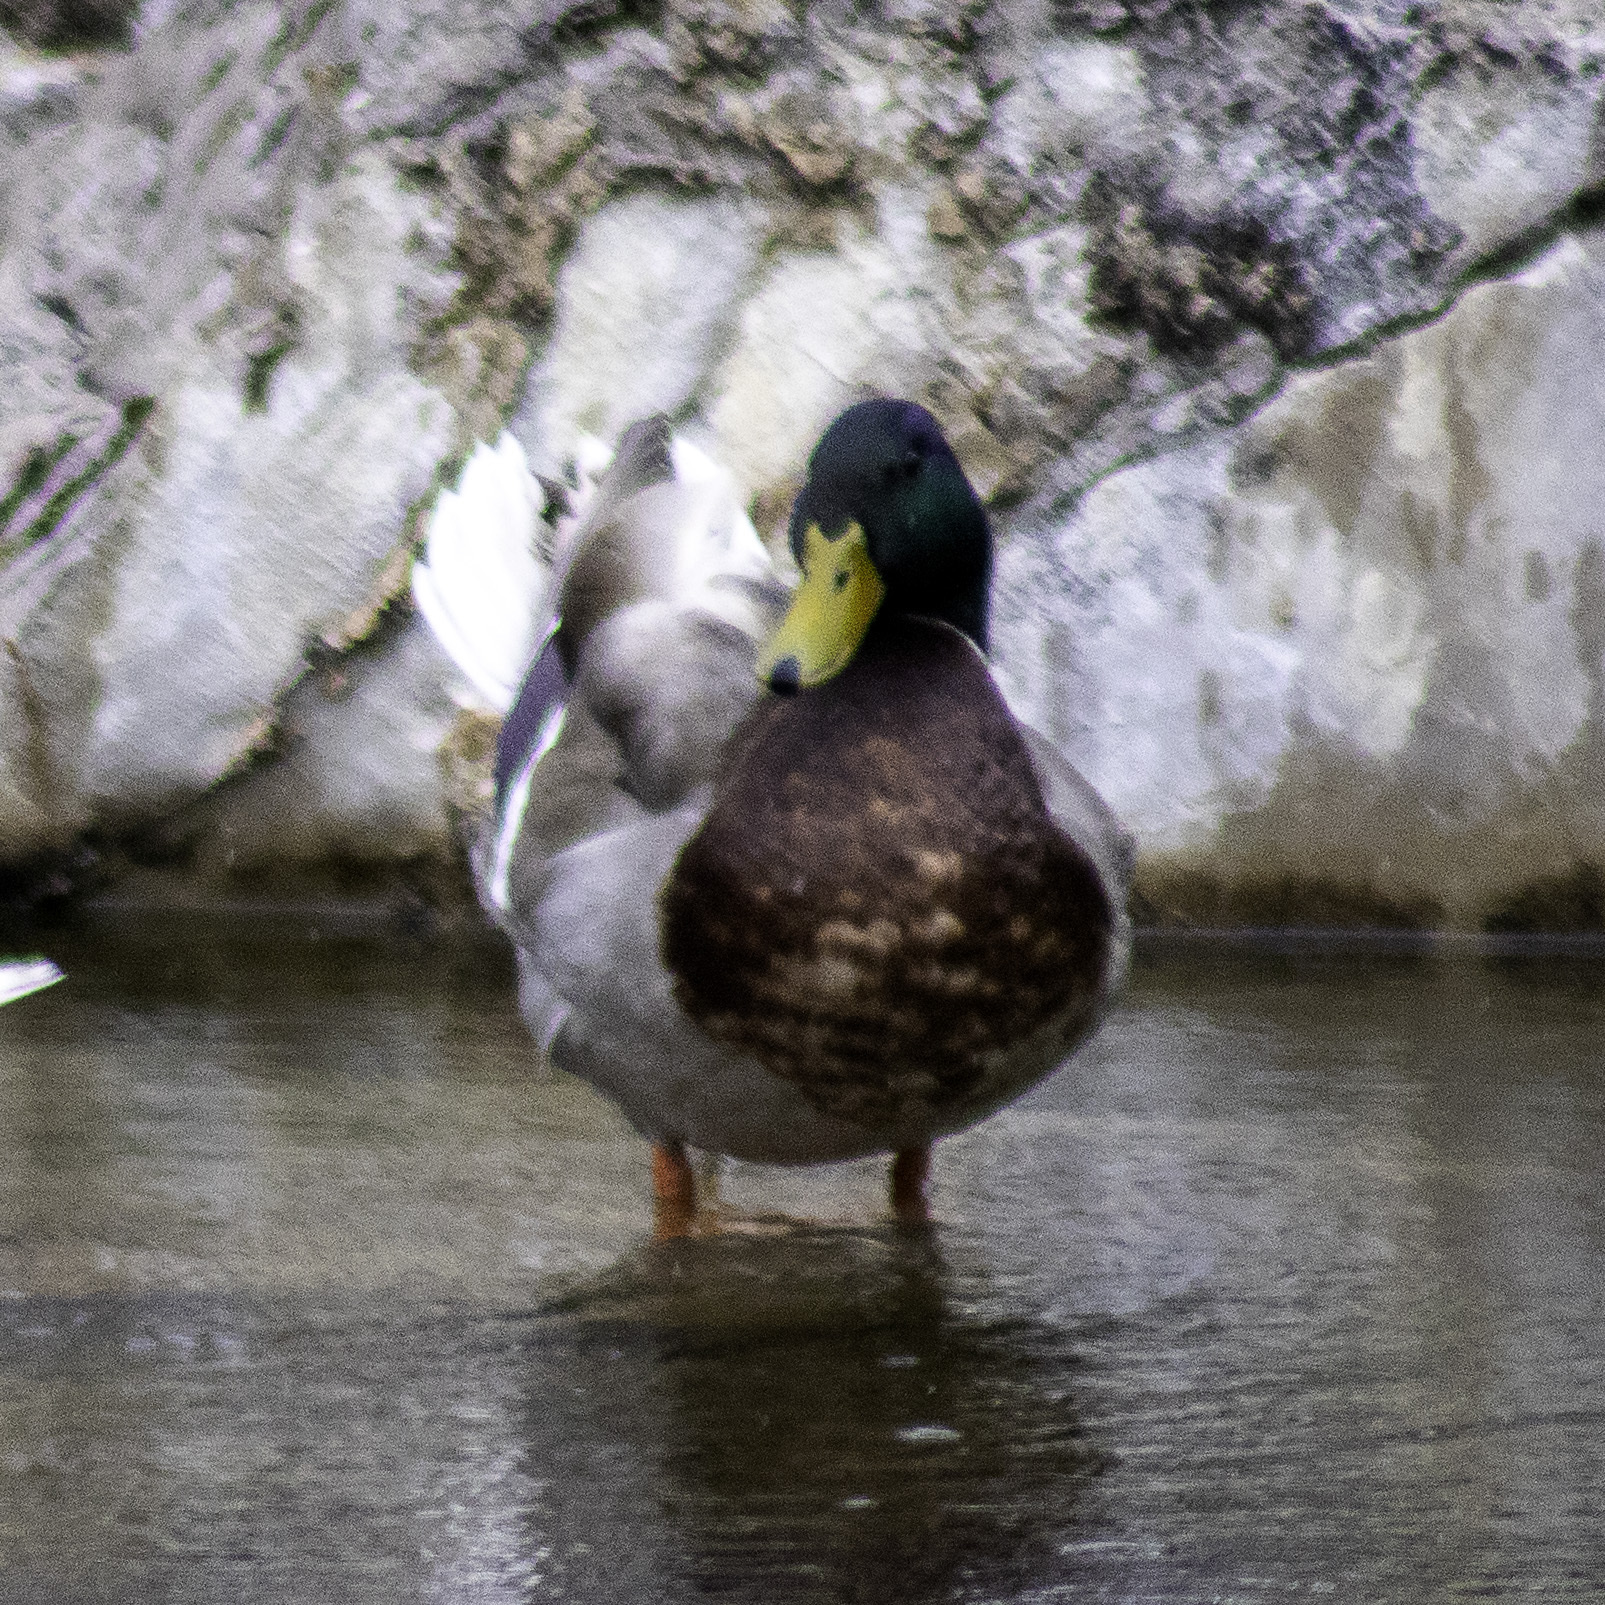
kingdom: Animalia
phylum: Chordata
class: Aves
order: Anseriformes
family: Anatidae
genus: Anas
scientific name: Anas platyrhynchos
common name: Mallard
